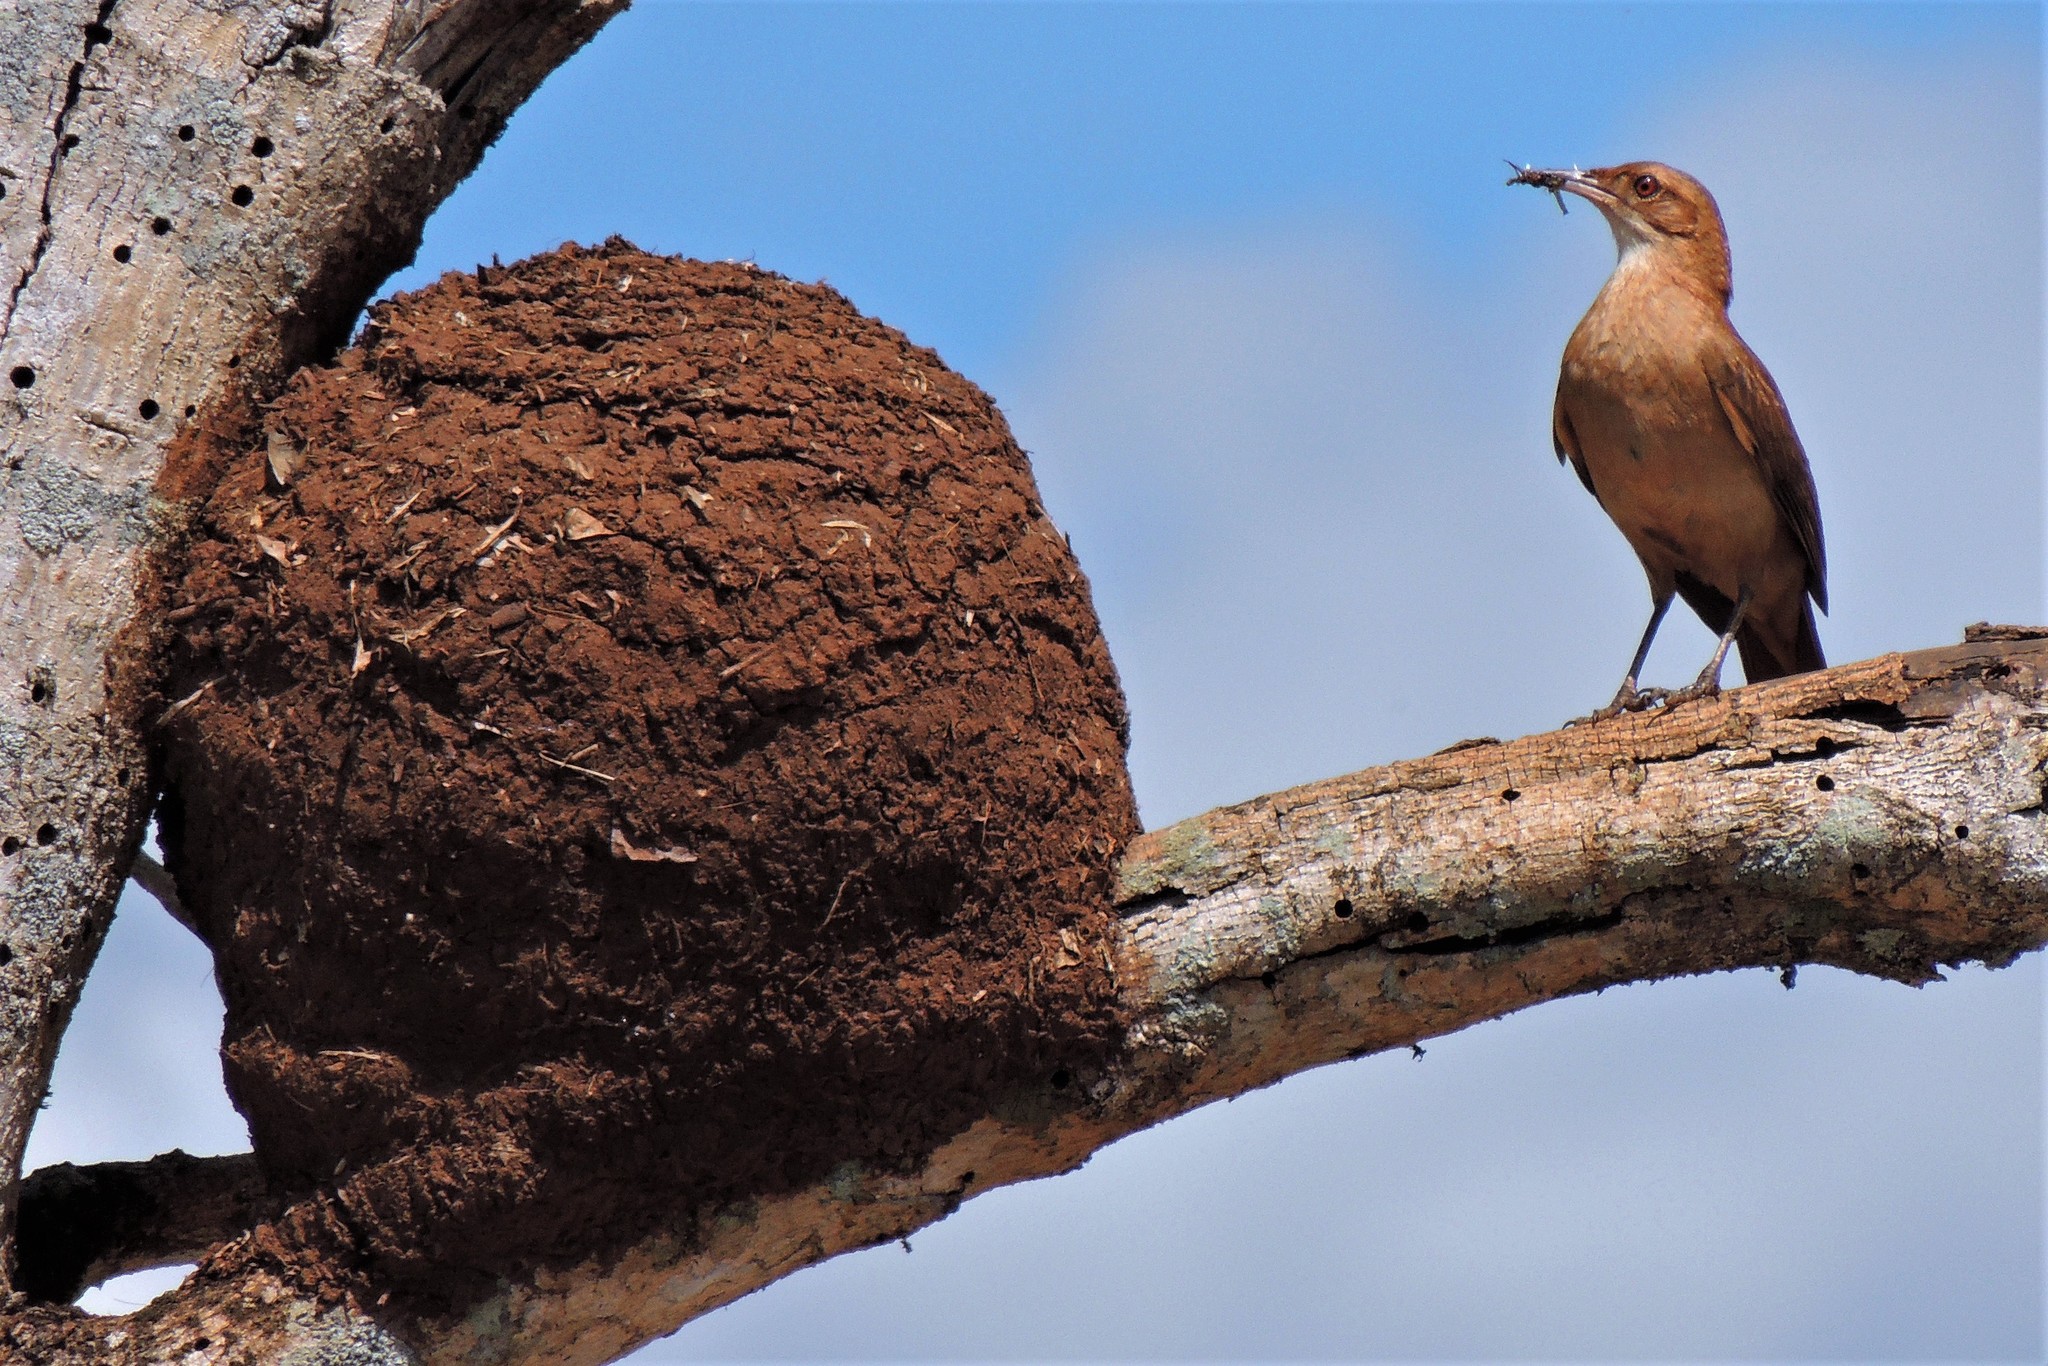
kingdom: Animalia
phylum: Chordata
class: Aves
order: Passeriformes
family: Furnariidae
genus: Furnarius
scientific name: Furnarius rufus
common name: Rufous hornero
